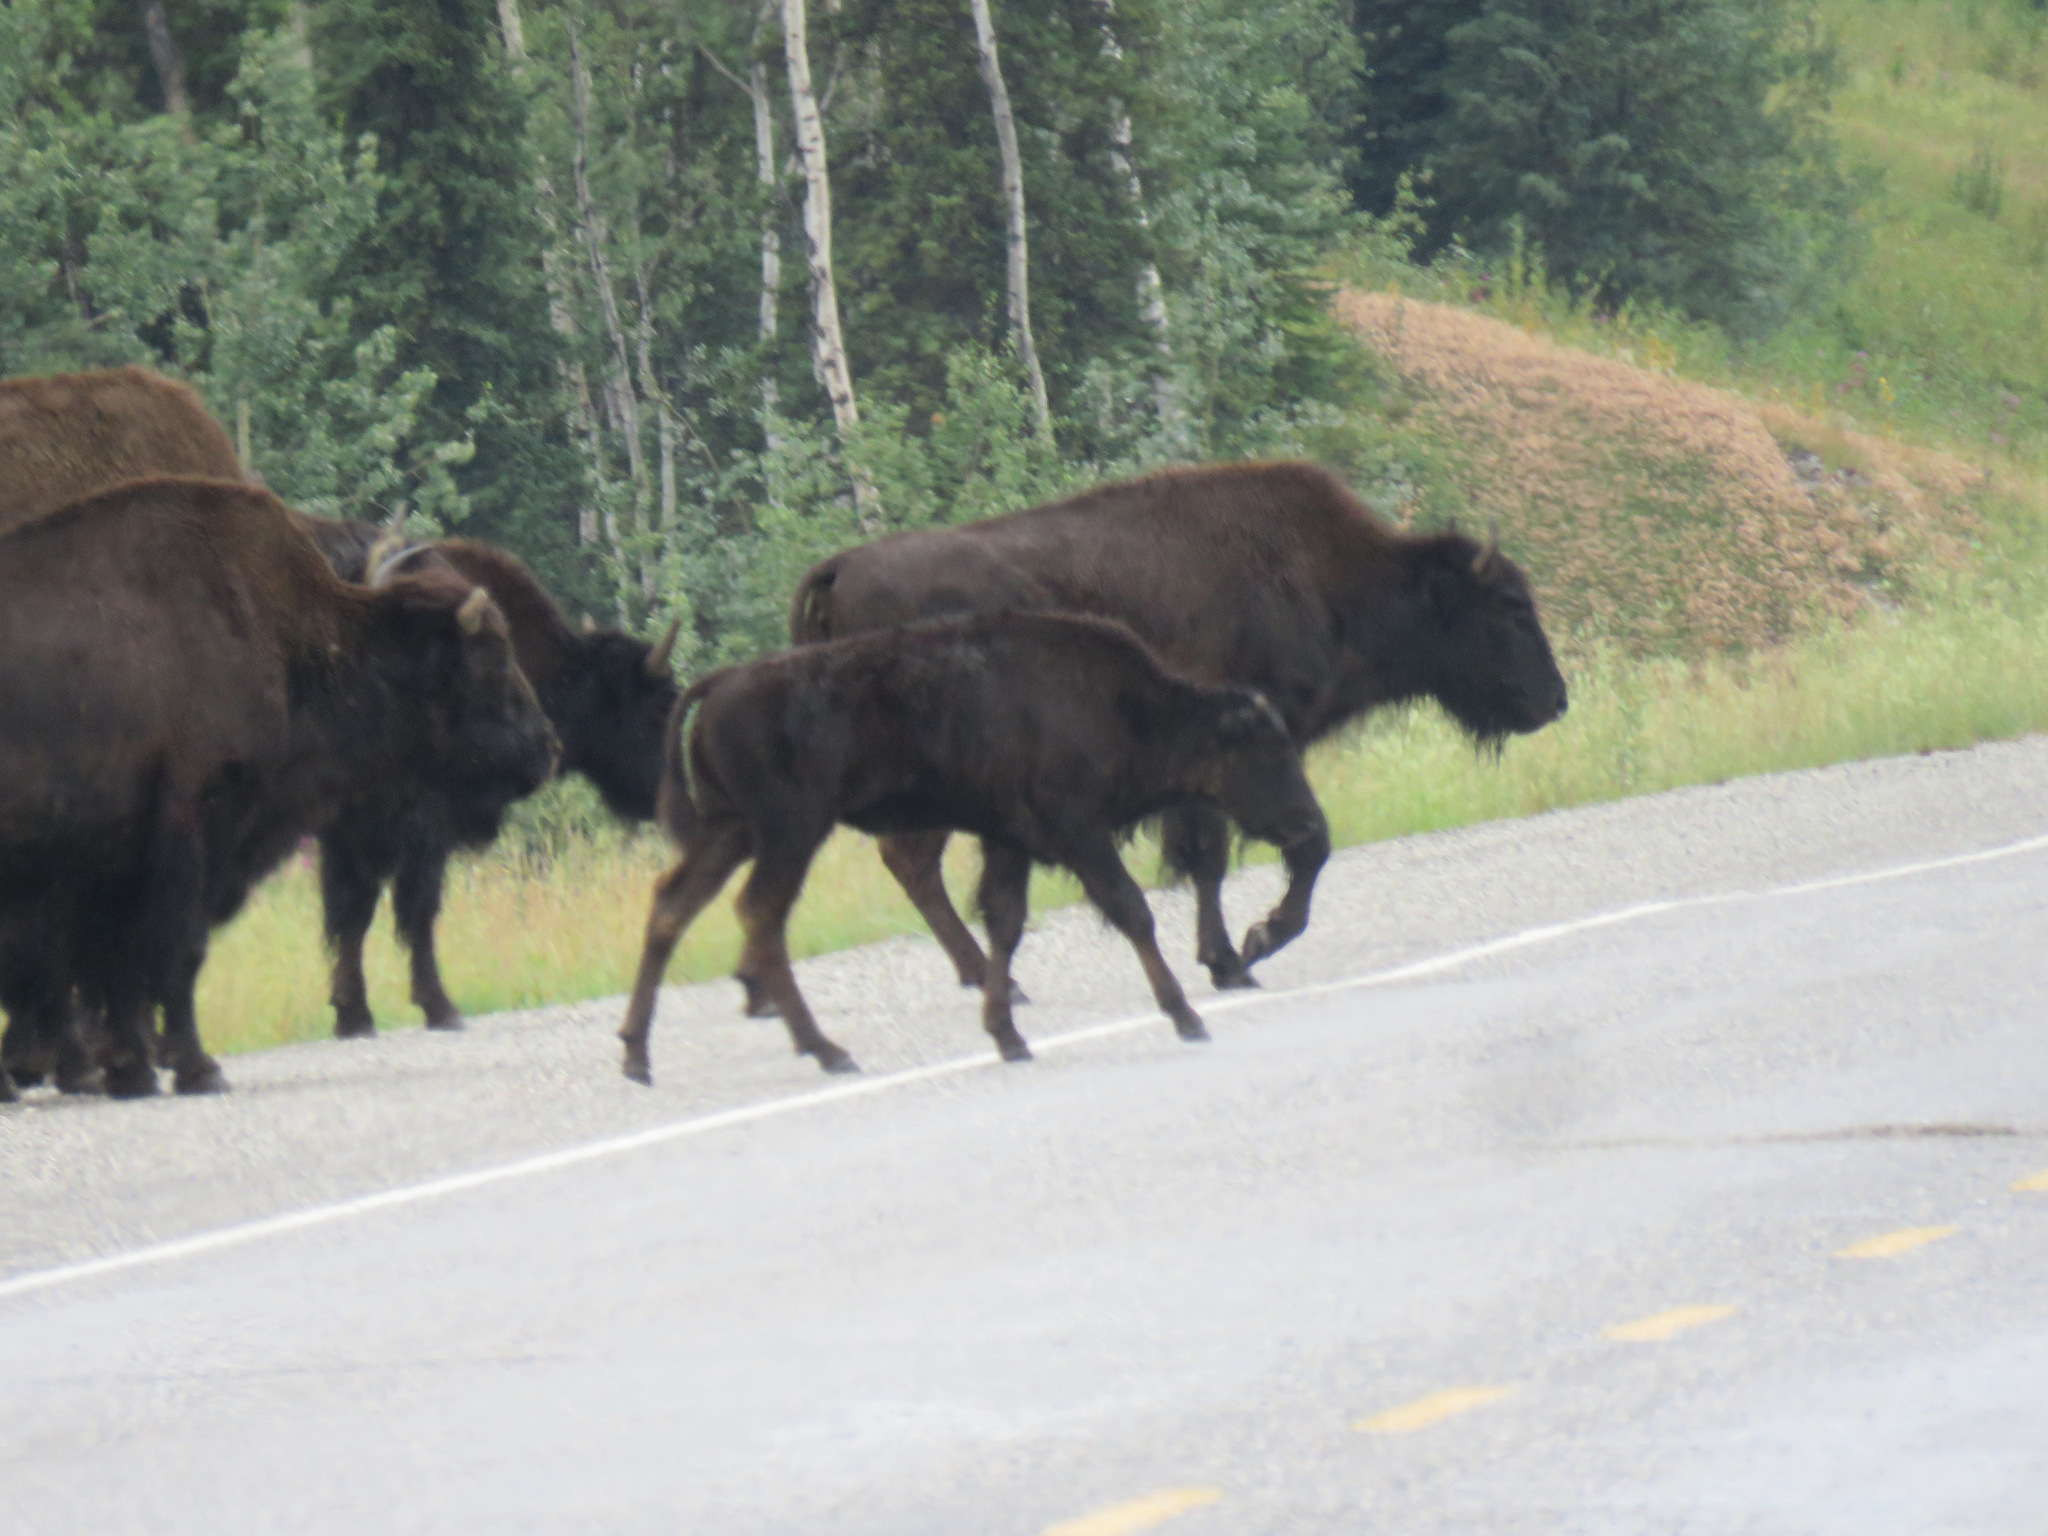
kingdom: Animalia
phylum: Chordata
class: Mammalia
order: Artiodactyla
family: Bovidae
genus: Bison
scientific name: Bison bison
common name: American bison
